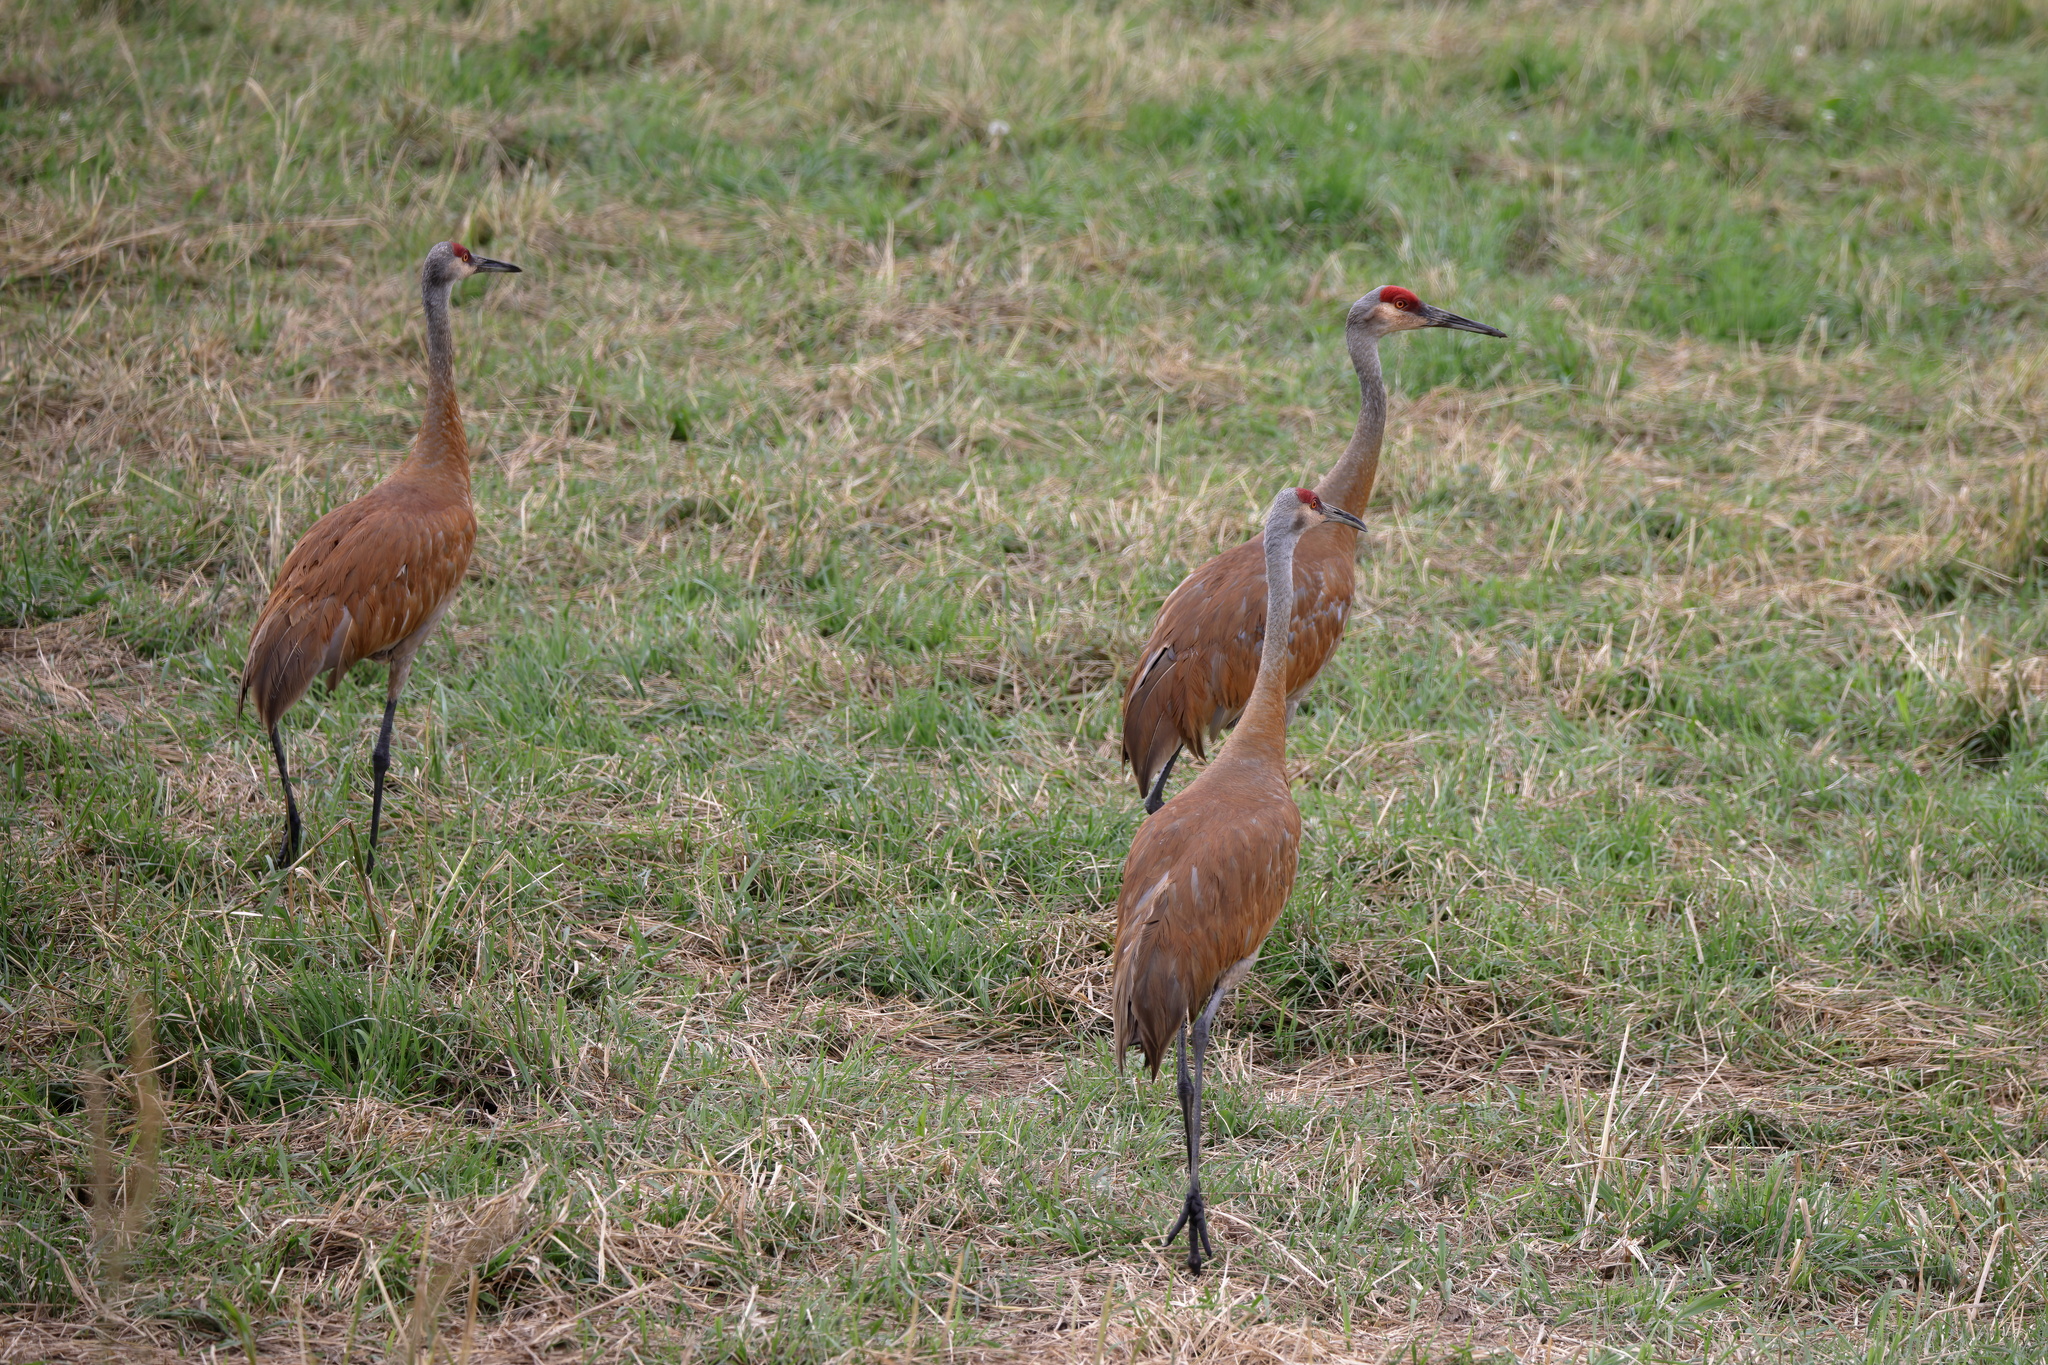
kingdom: Animalia
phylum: Chordata
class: Aves
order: Gruiformes
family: Gruidae
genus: Grus
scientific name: Grus canadensis
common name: Sandhill crane
